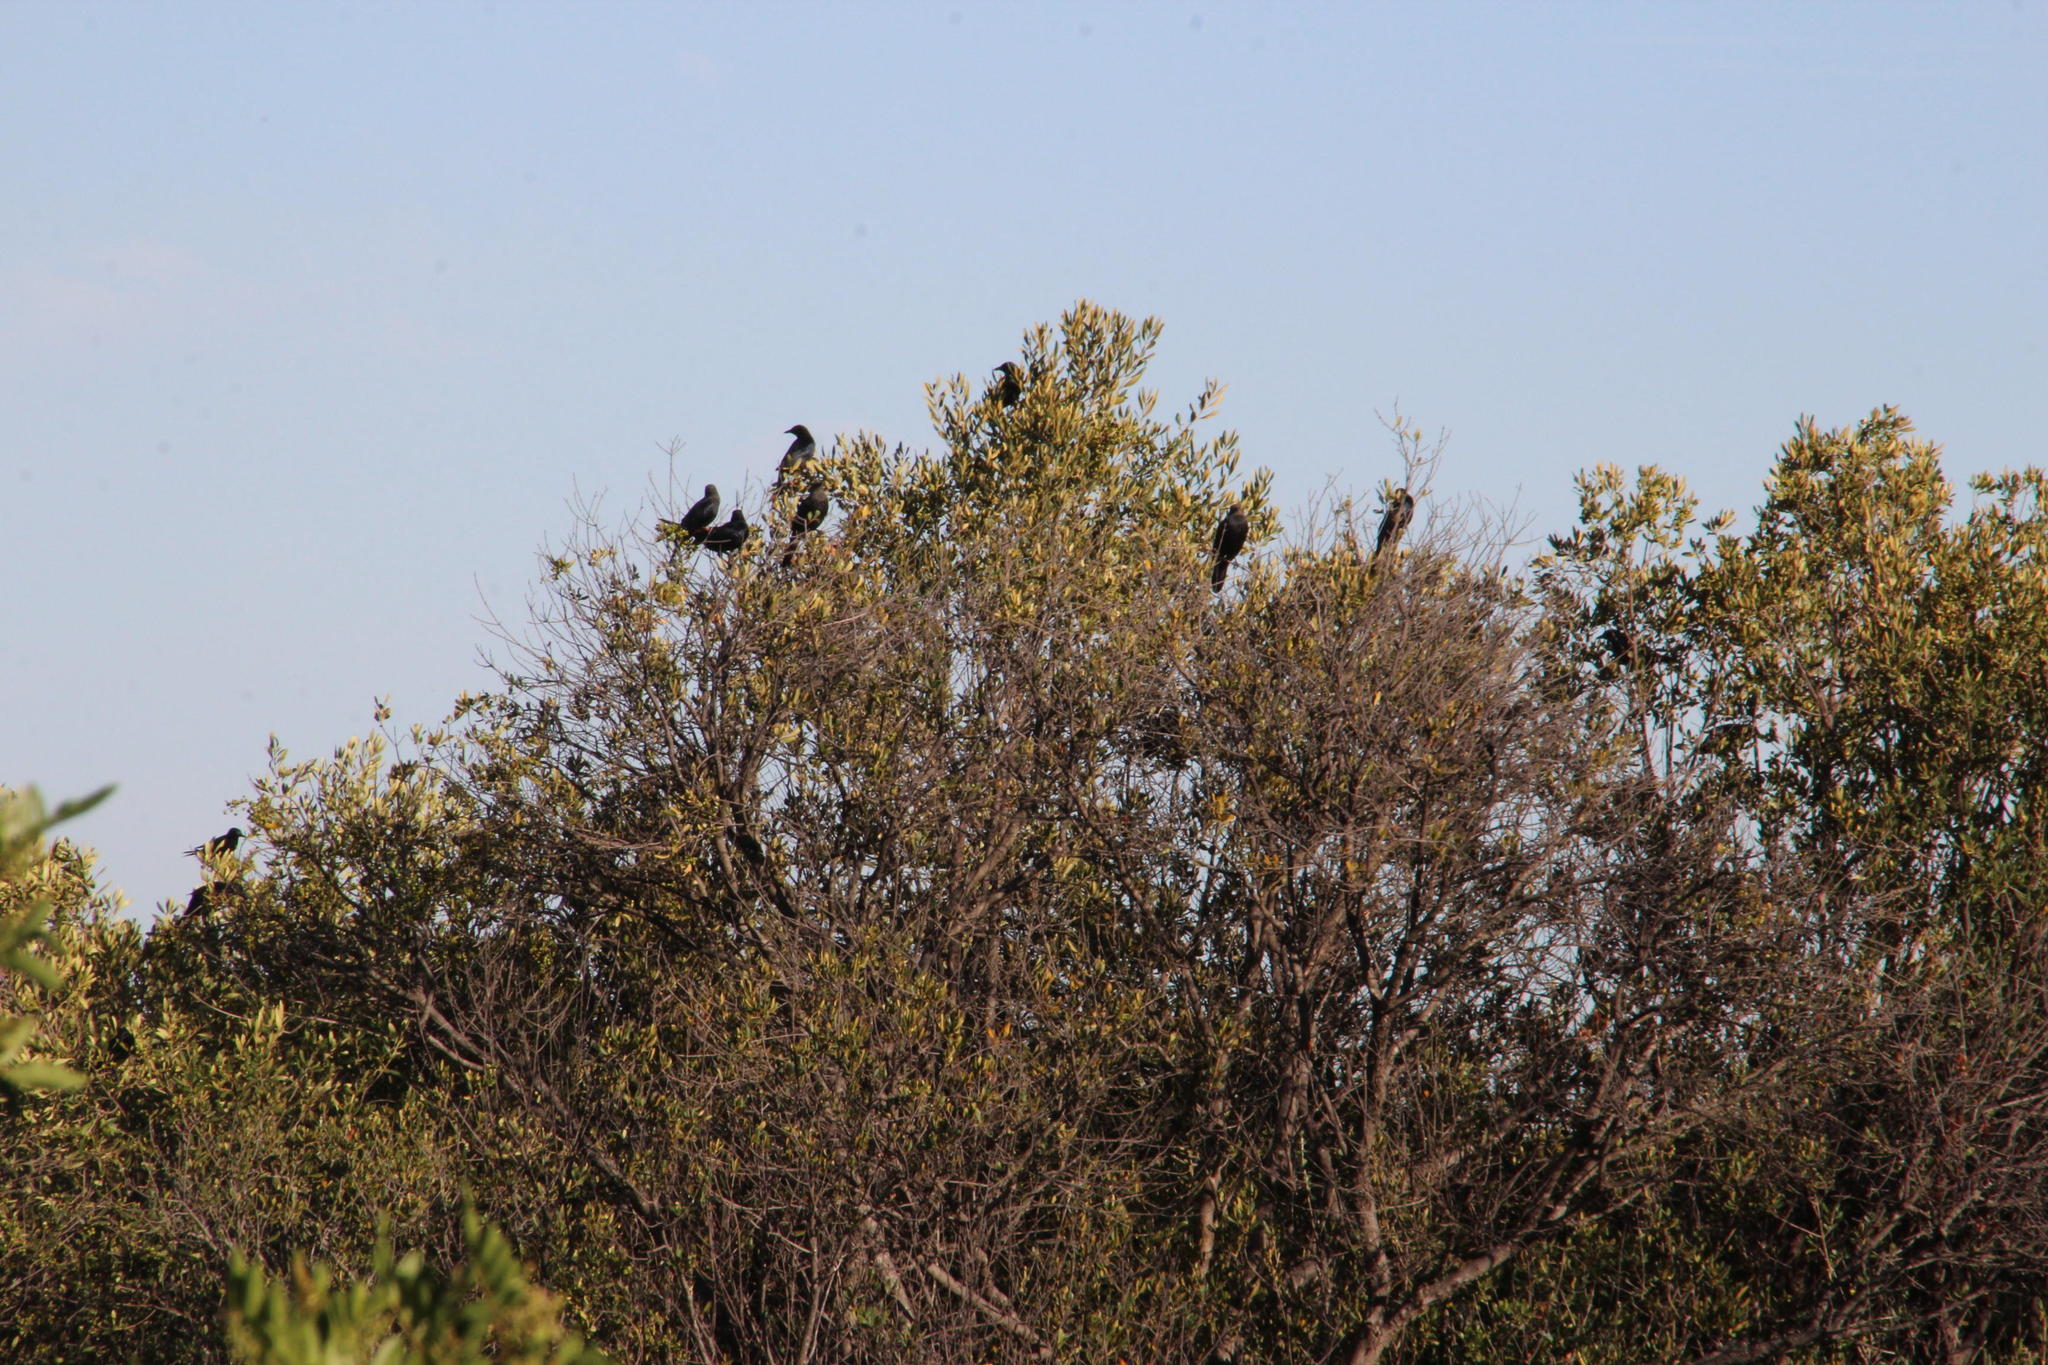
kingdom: Animalia
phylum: Chordata
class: Aves
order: Passeriformes
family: Sturnidae
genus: Onychognathus
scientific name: Onychognathus morio
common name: Red-winged starling
